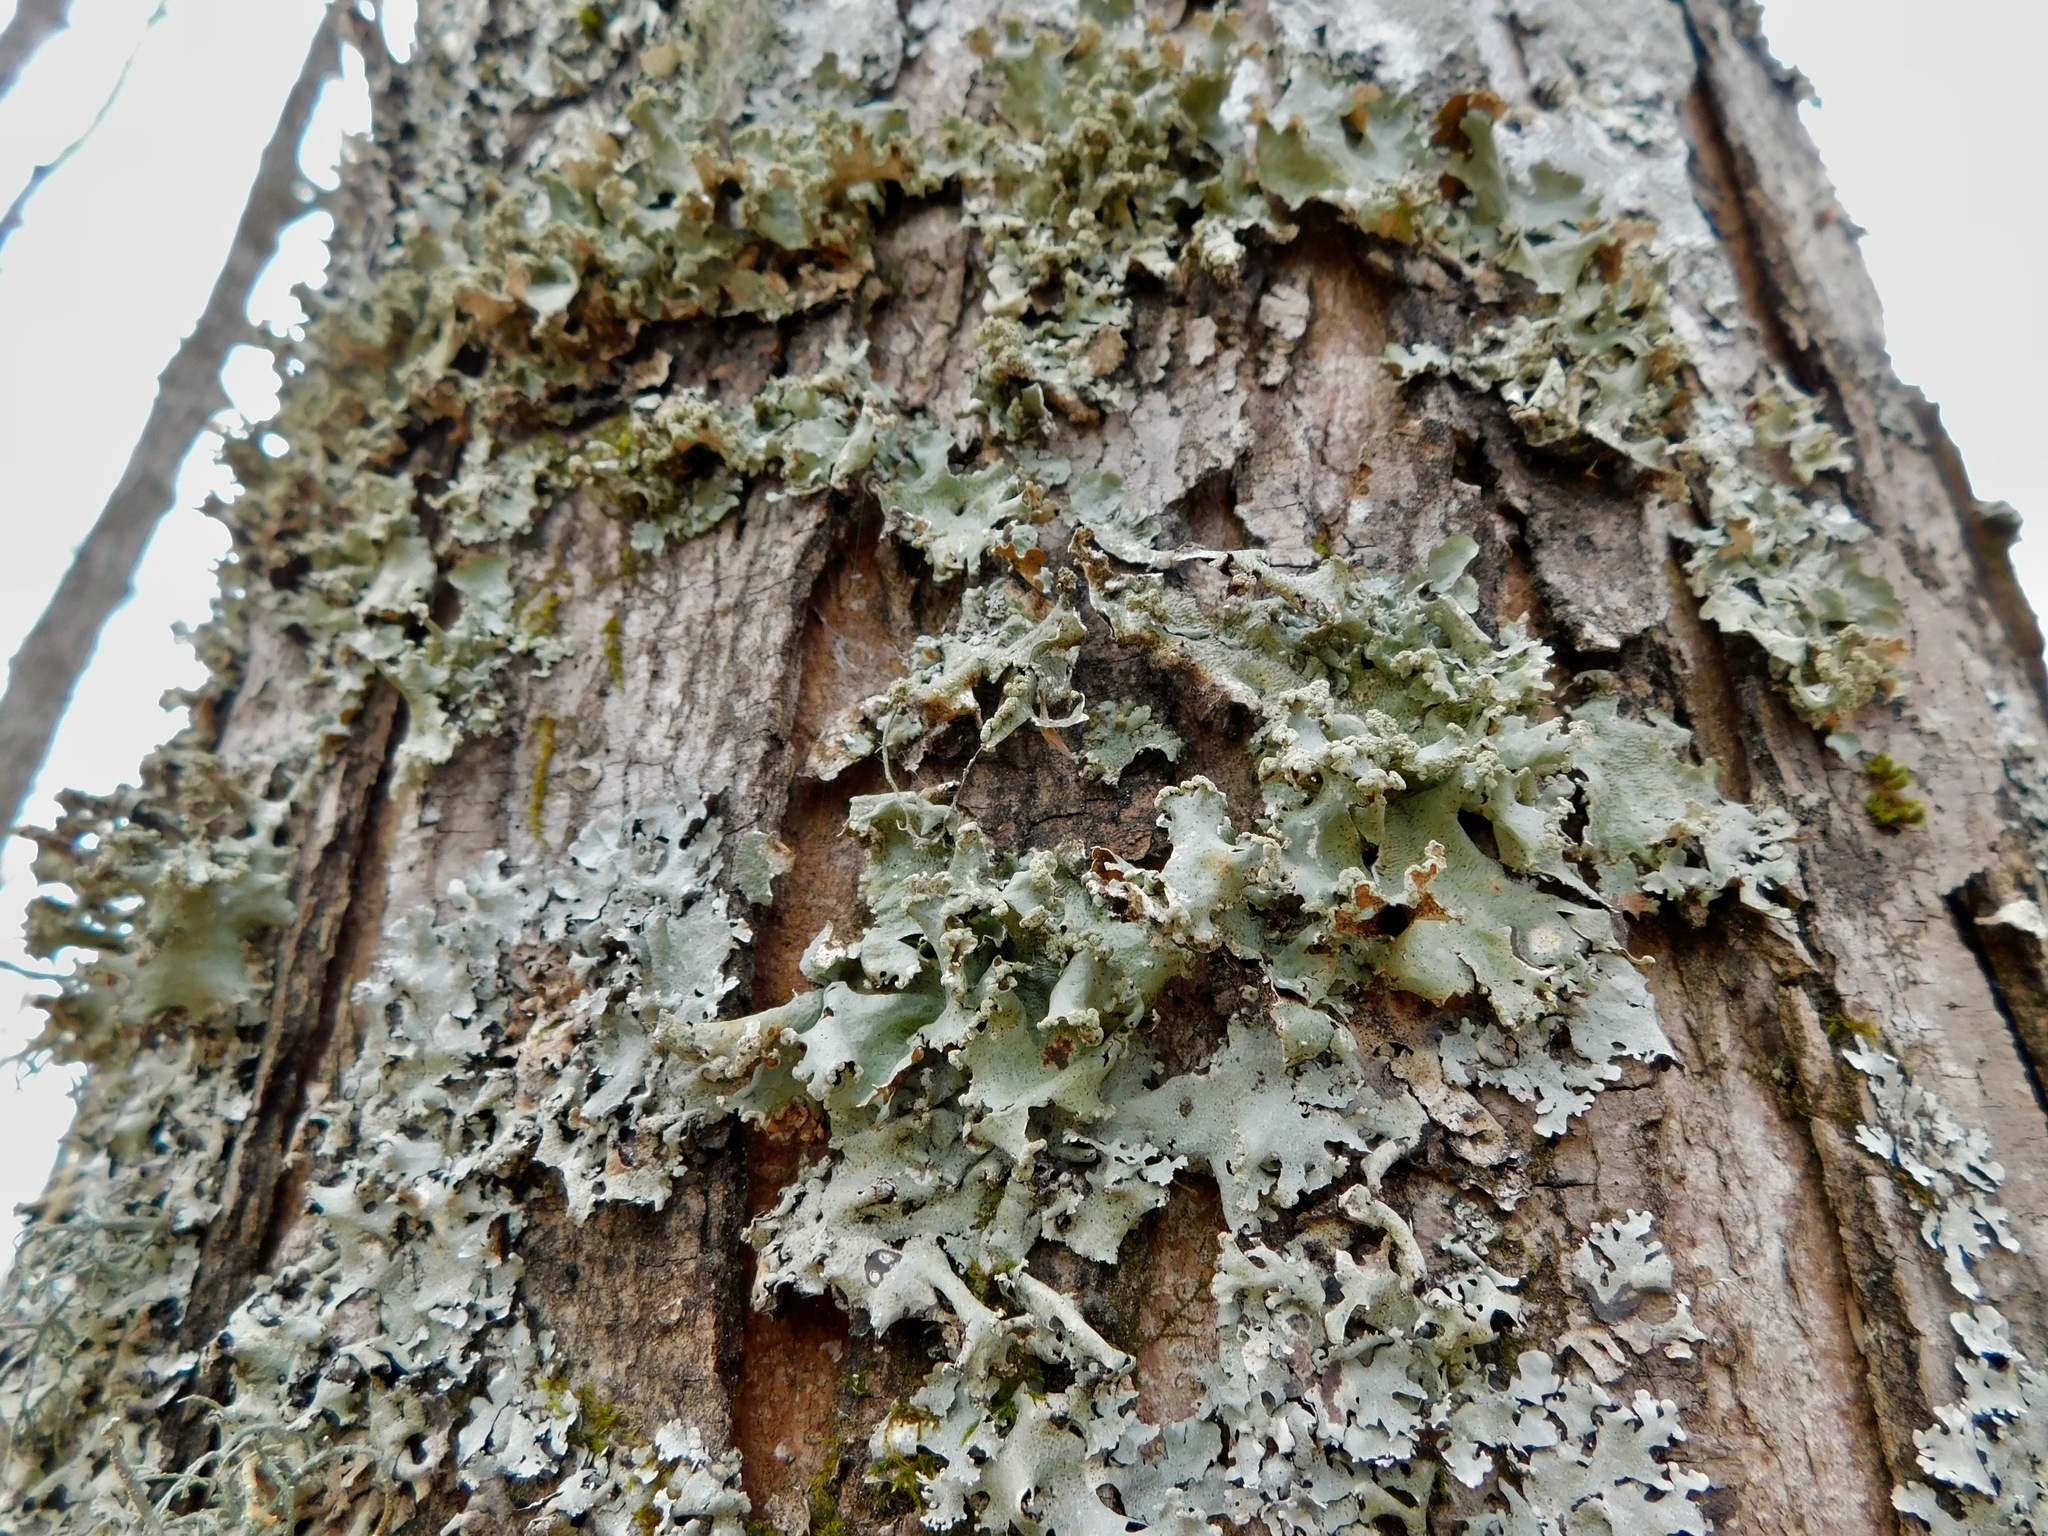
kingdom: Fungi
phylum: Ascomycota
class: Lecanoromycetes
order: Lecanorales
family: Parmeliaceae
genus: Parmotrema
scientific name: Parmotrema perlatum
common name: Black stone flower
